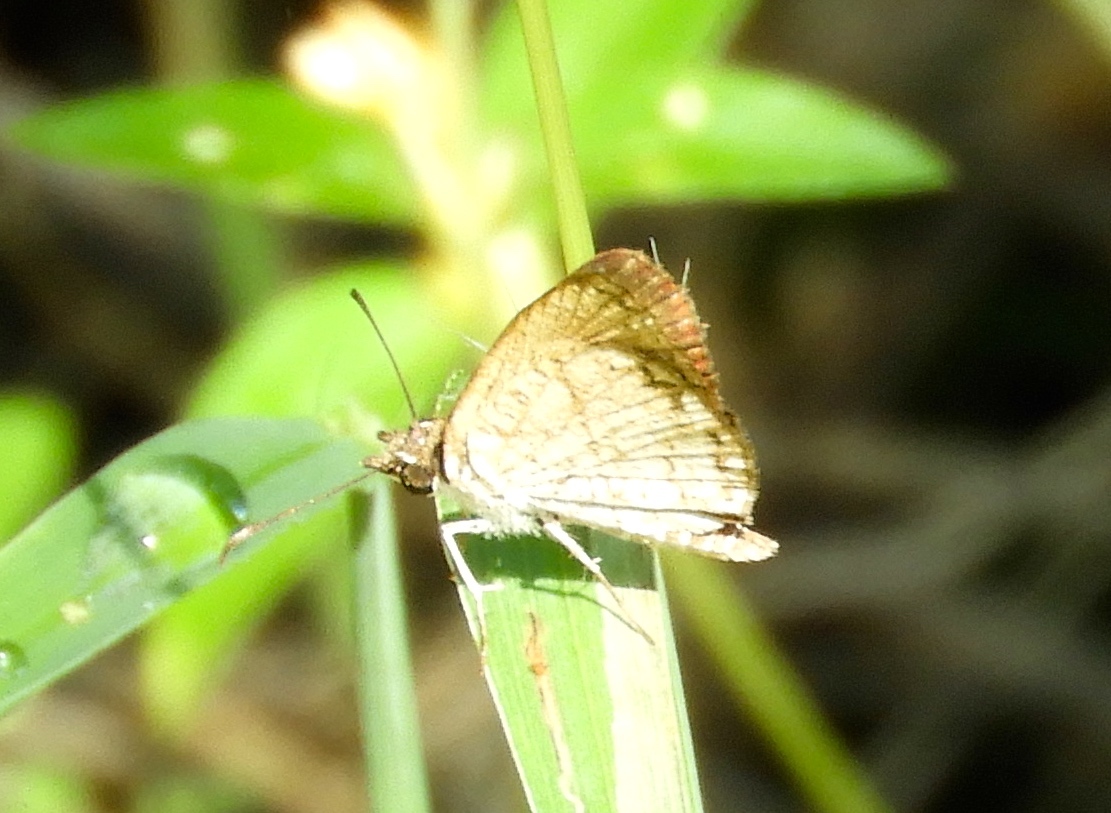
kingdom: Animalia
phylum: Arthropoda
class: Insecta
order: Lepidoptera
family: Hesperiidae
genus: Zopyrion
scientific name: Zopyrion sandace
